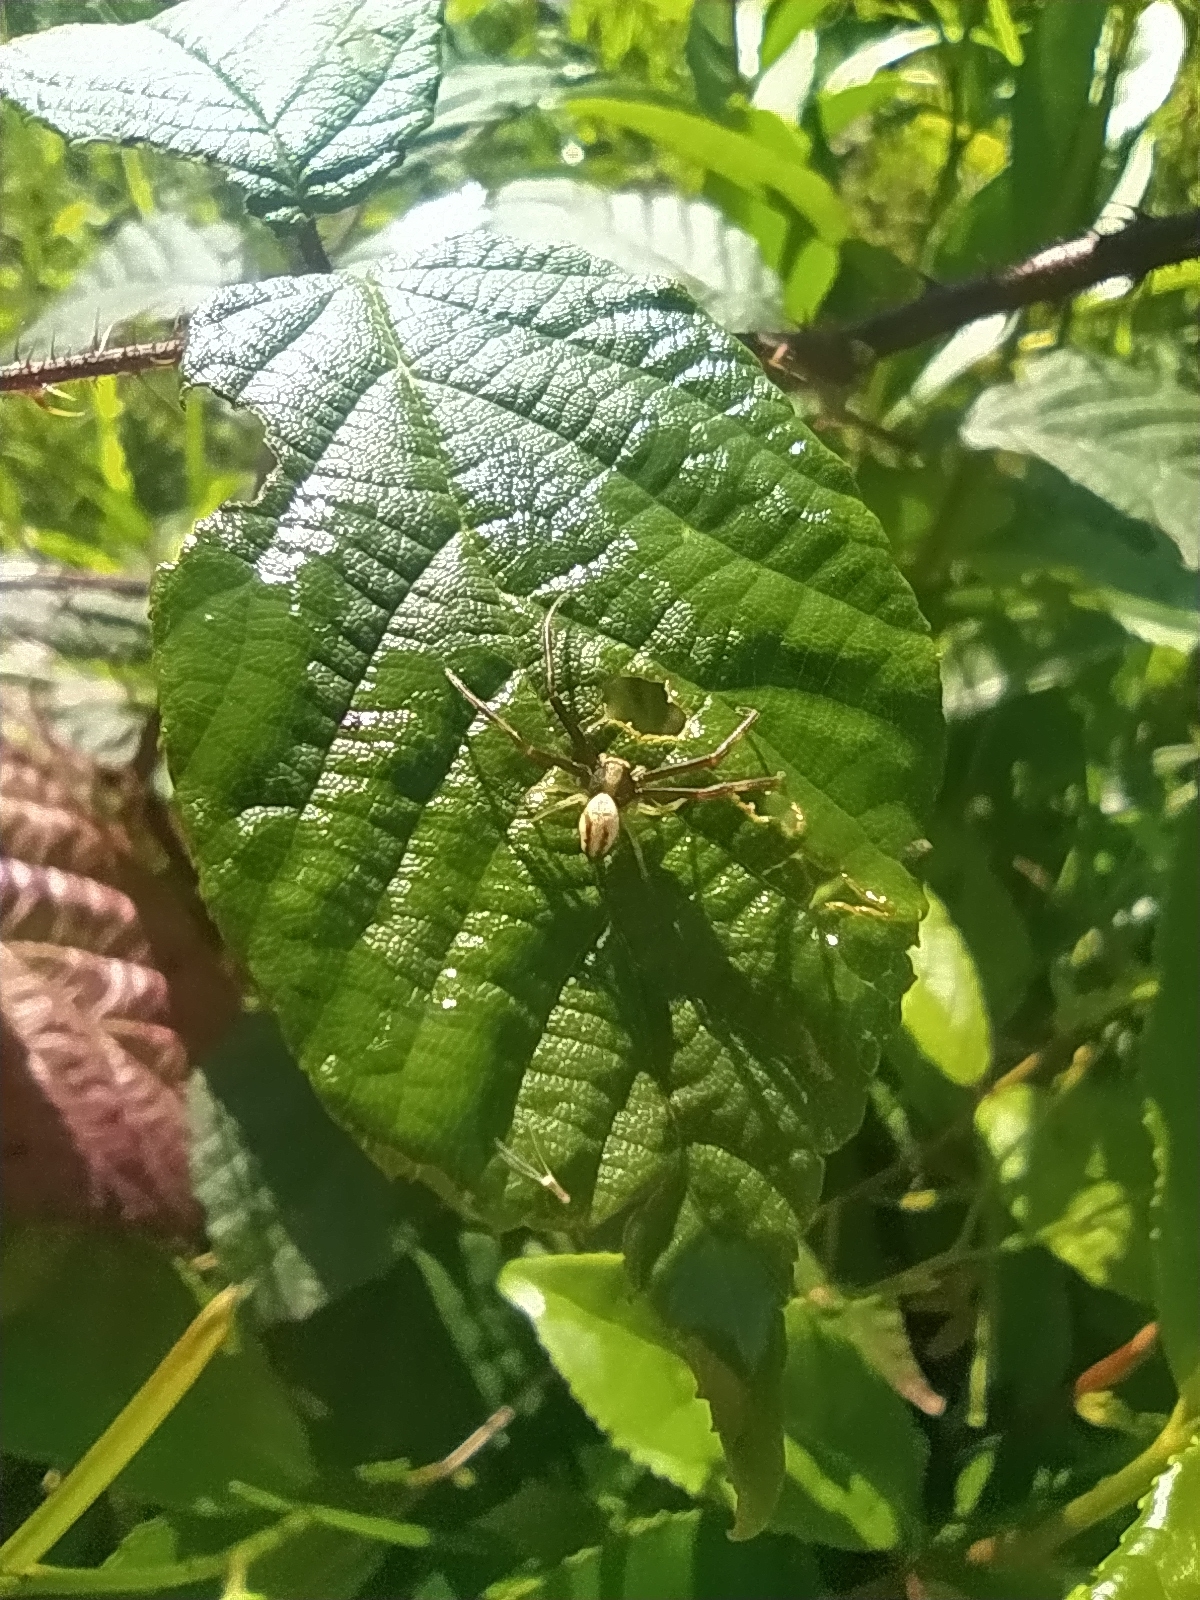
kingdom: Animalia
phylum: Arthropoda
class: Arachnida
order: Araneae
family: Thomisidae
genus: Misumena
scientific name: Misumena vatia
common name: Goldenrod crab spider
